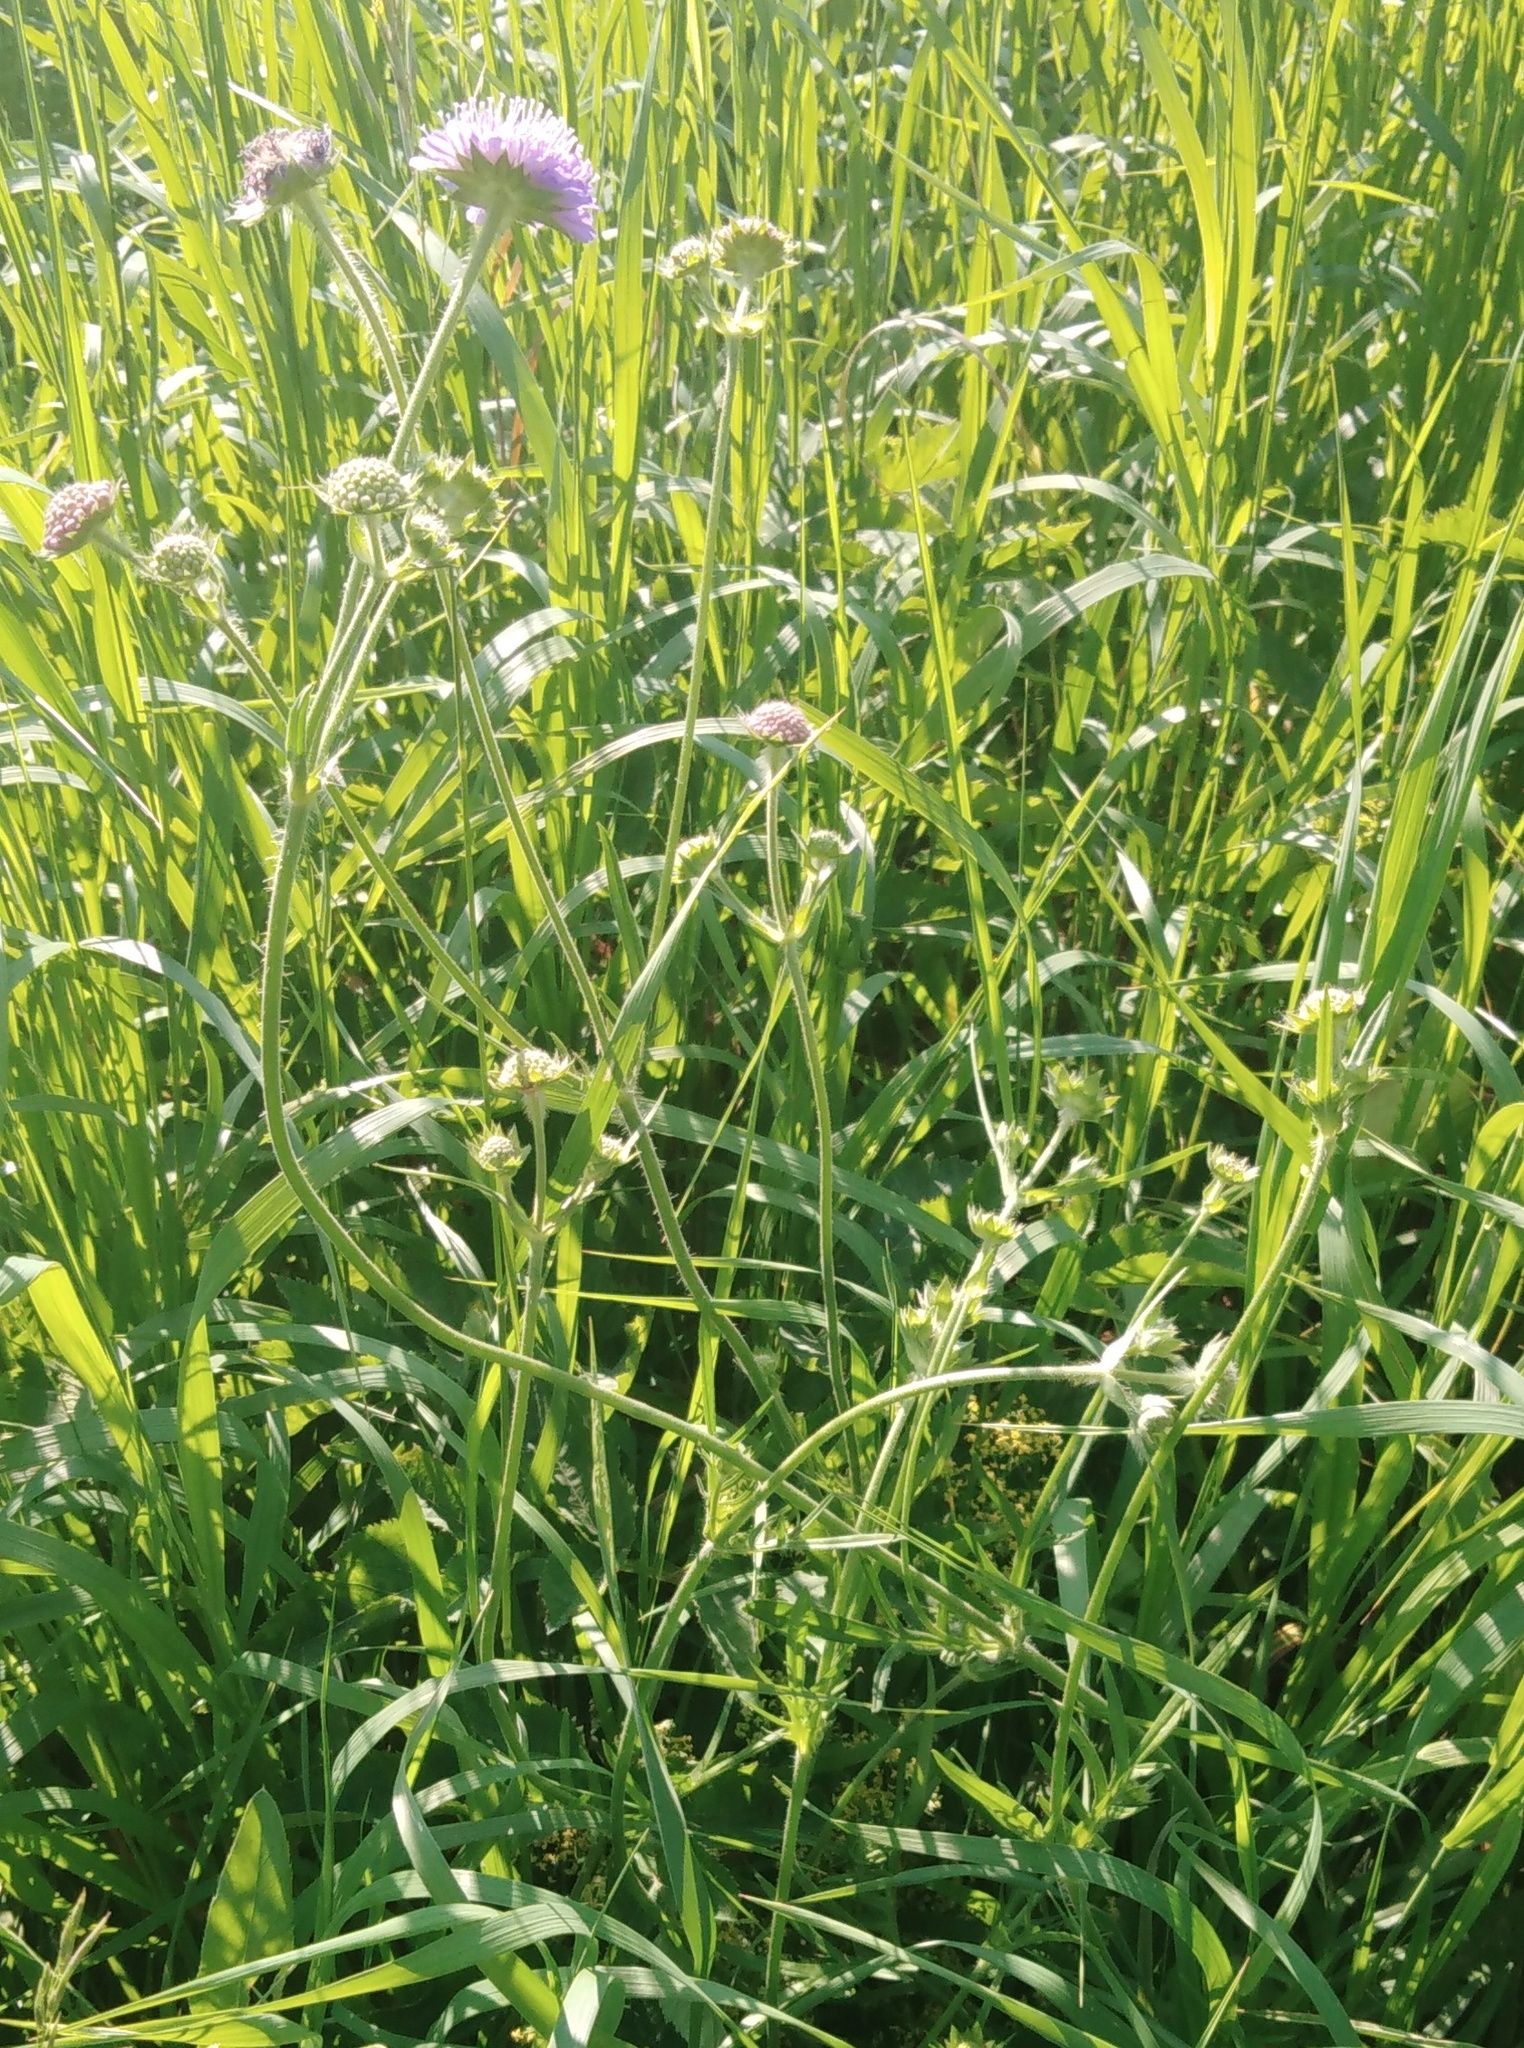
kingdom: Plantae
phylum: Tracheophyta
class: Magnoliopsida
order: Dipsacales
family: Caprifoliaceae
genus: Knautia
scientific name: Knautia arvensis
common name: Field scabiosa
